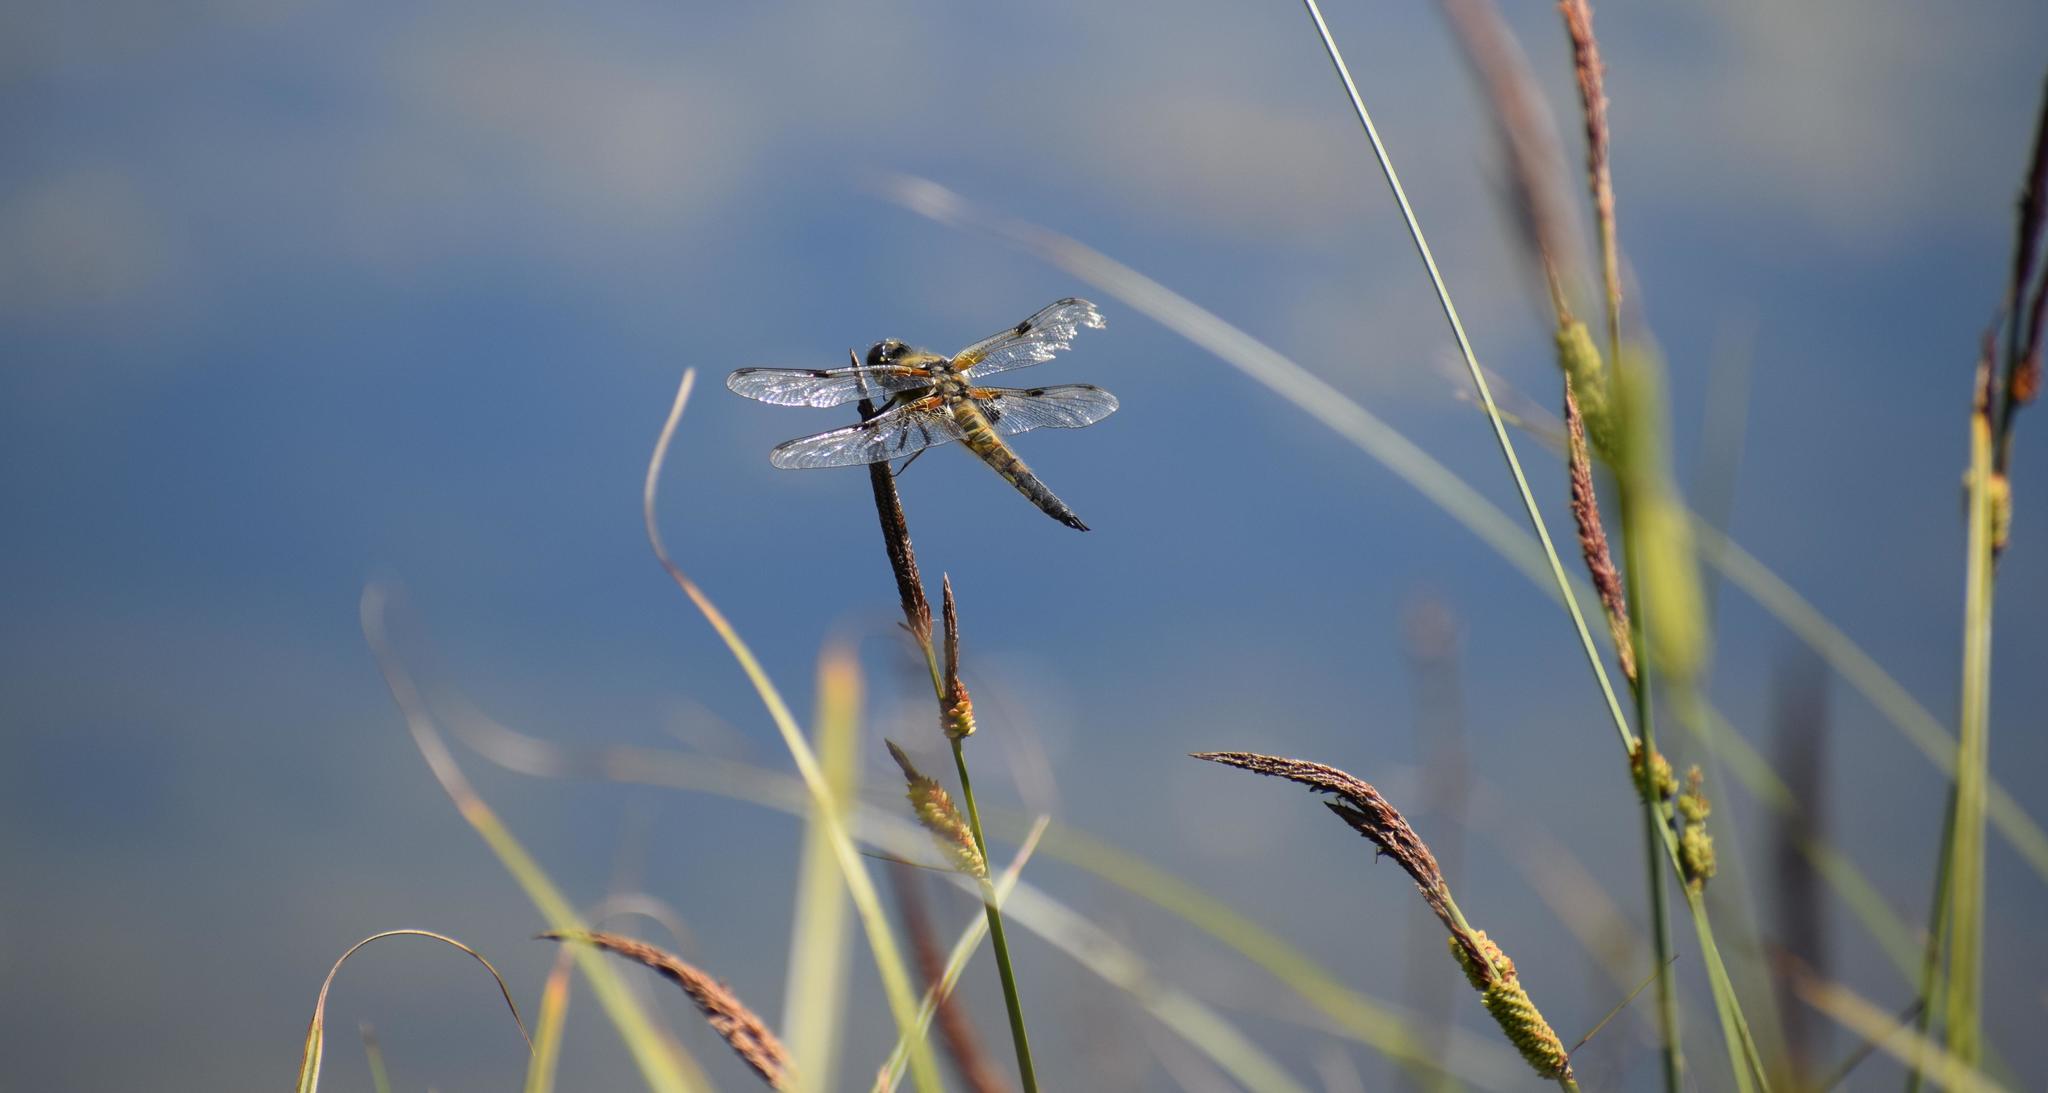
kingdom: Animalia
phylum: Arthropoda
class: Insecta
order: Odonata
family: Libellulidae
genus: Libellula
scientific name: Libellula quadrimaculata
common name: Four-spotted chaser
